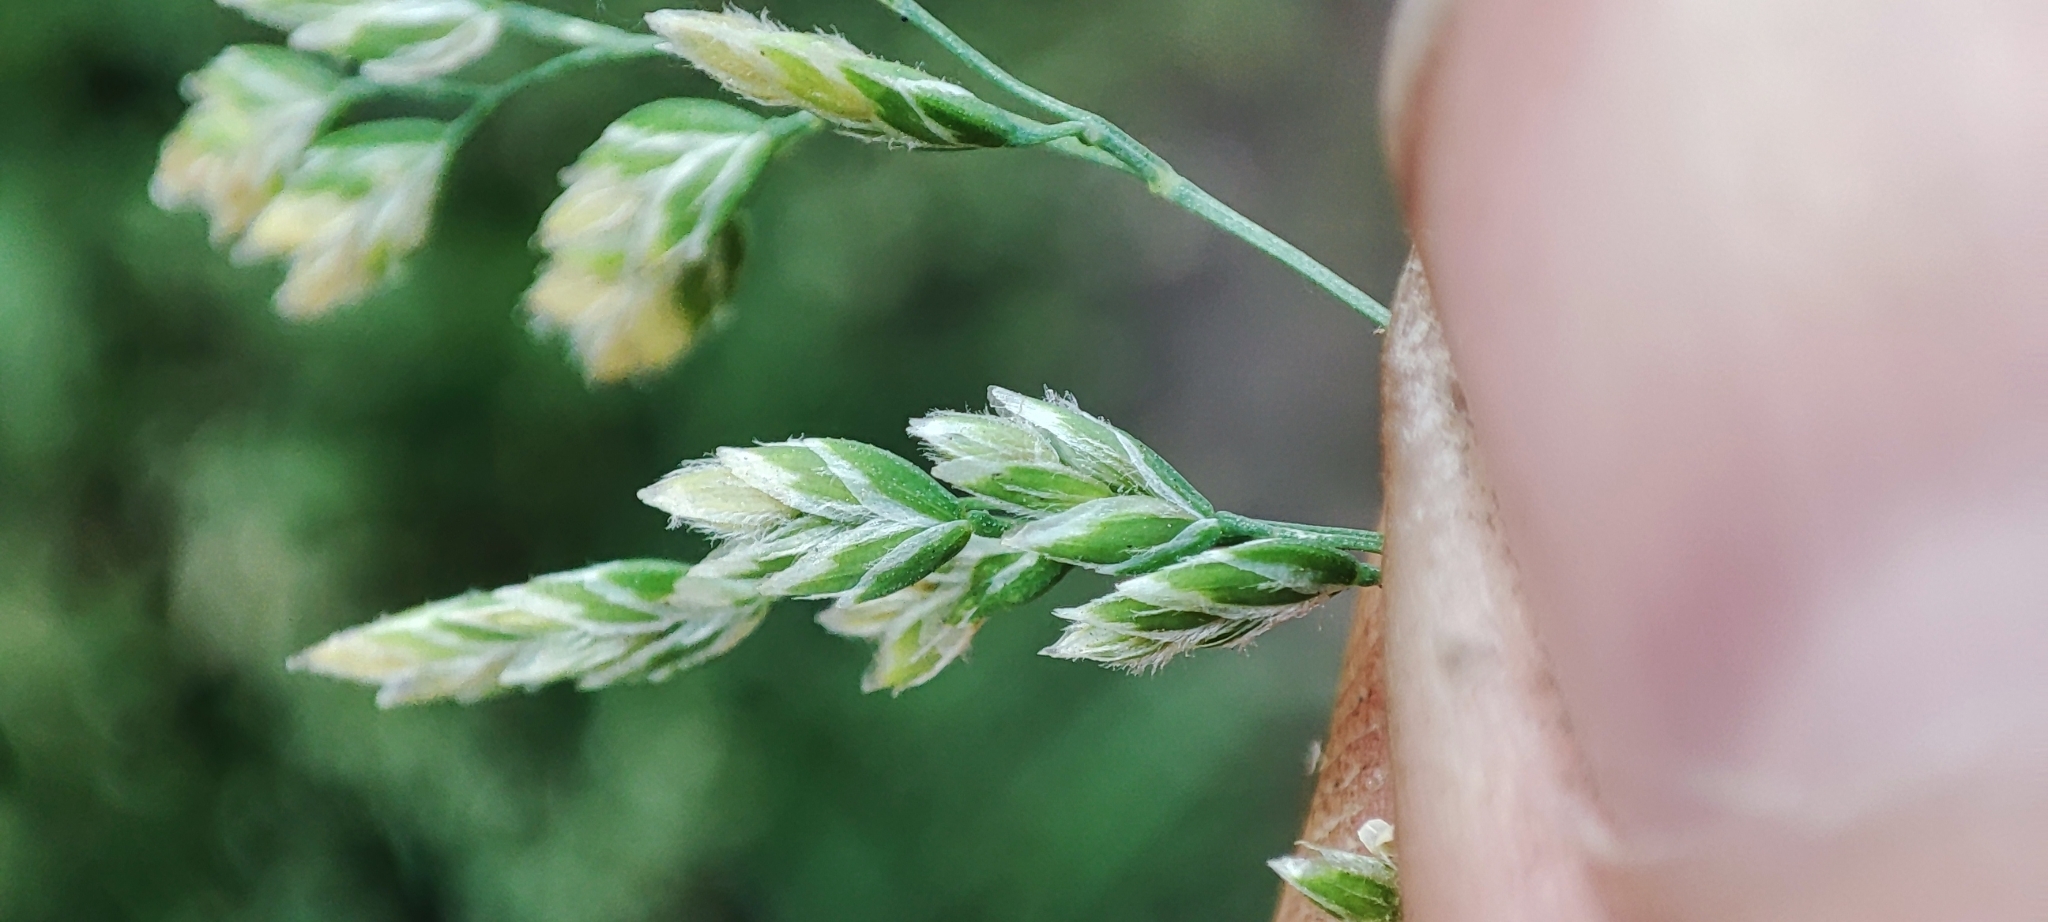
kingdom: Plantae
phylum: Tracheophyta
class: Liliopsida
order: Poales
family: Poaceae
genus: Poa
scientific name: Poa annua
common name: Annual bluegrass
